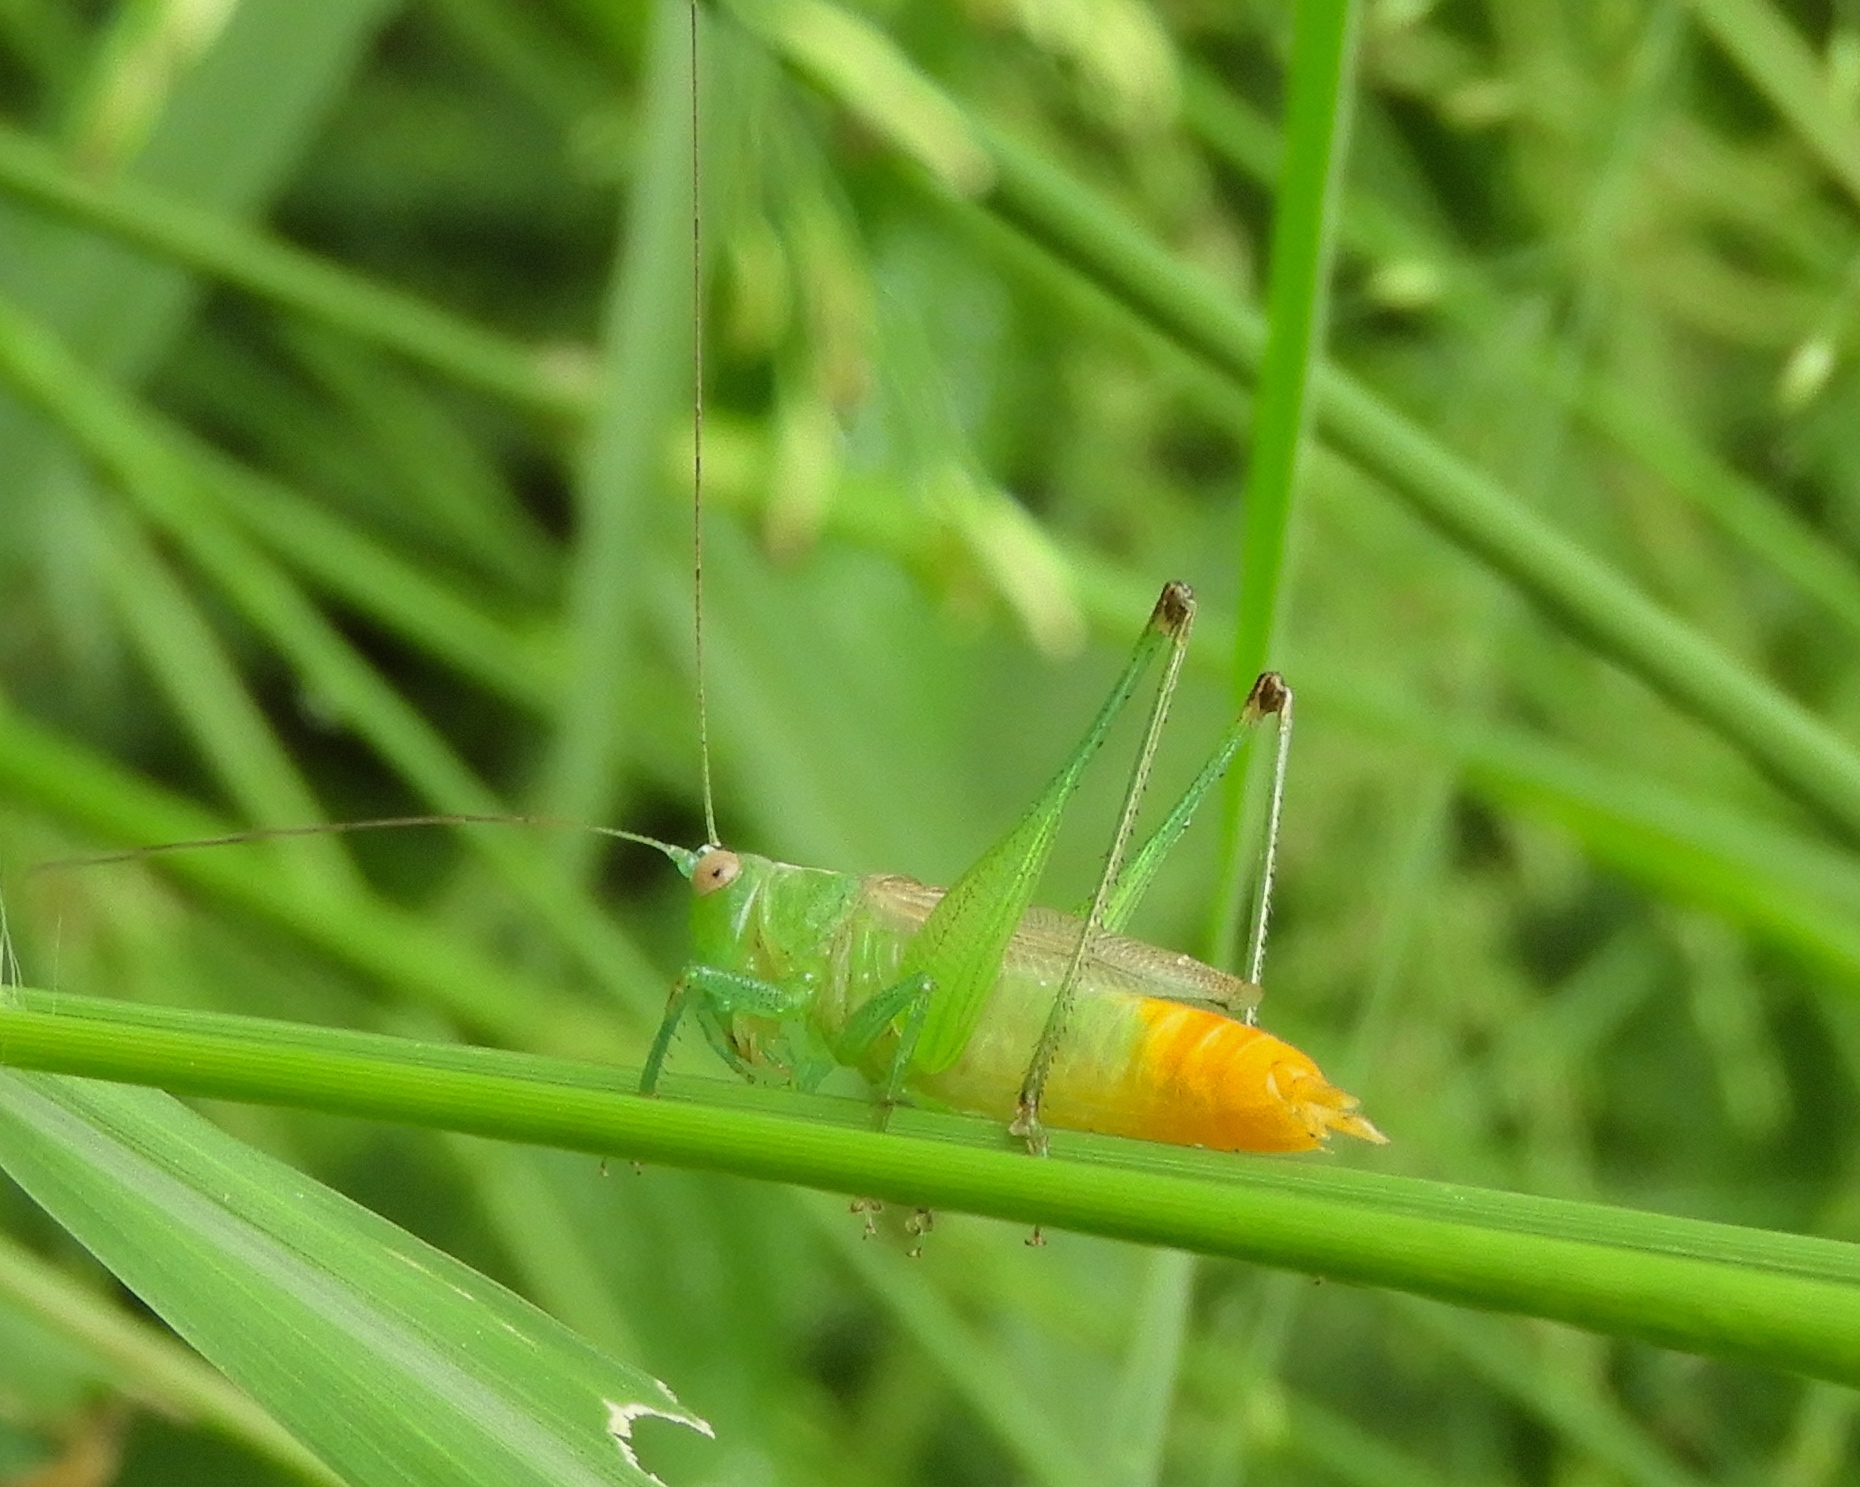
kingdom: Animalia
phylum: Arthropoda
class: Insecta
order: Orthoptera
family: Tettigoniidae
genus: Conocephalus
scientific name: Conocephalus
